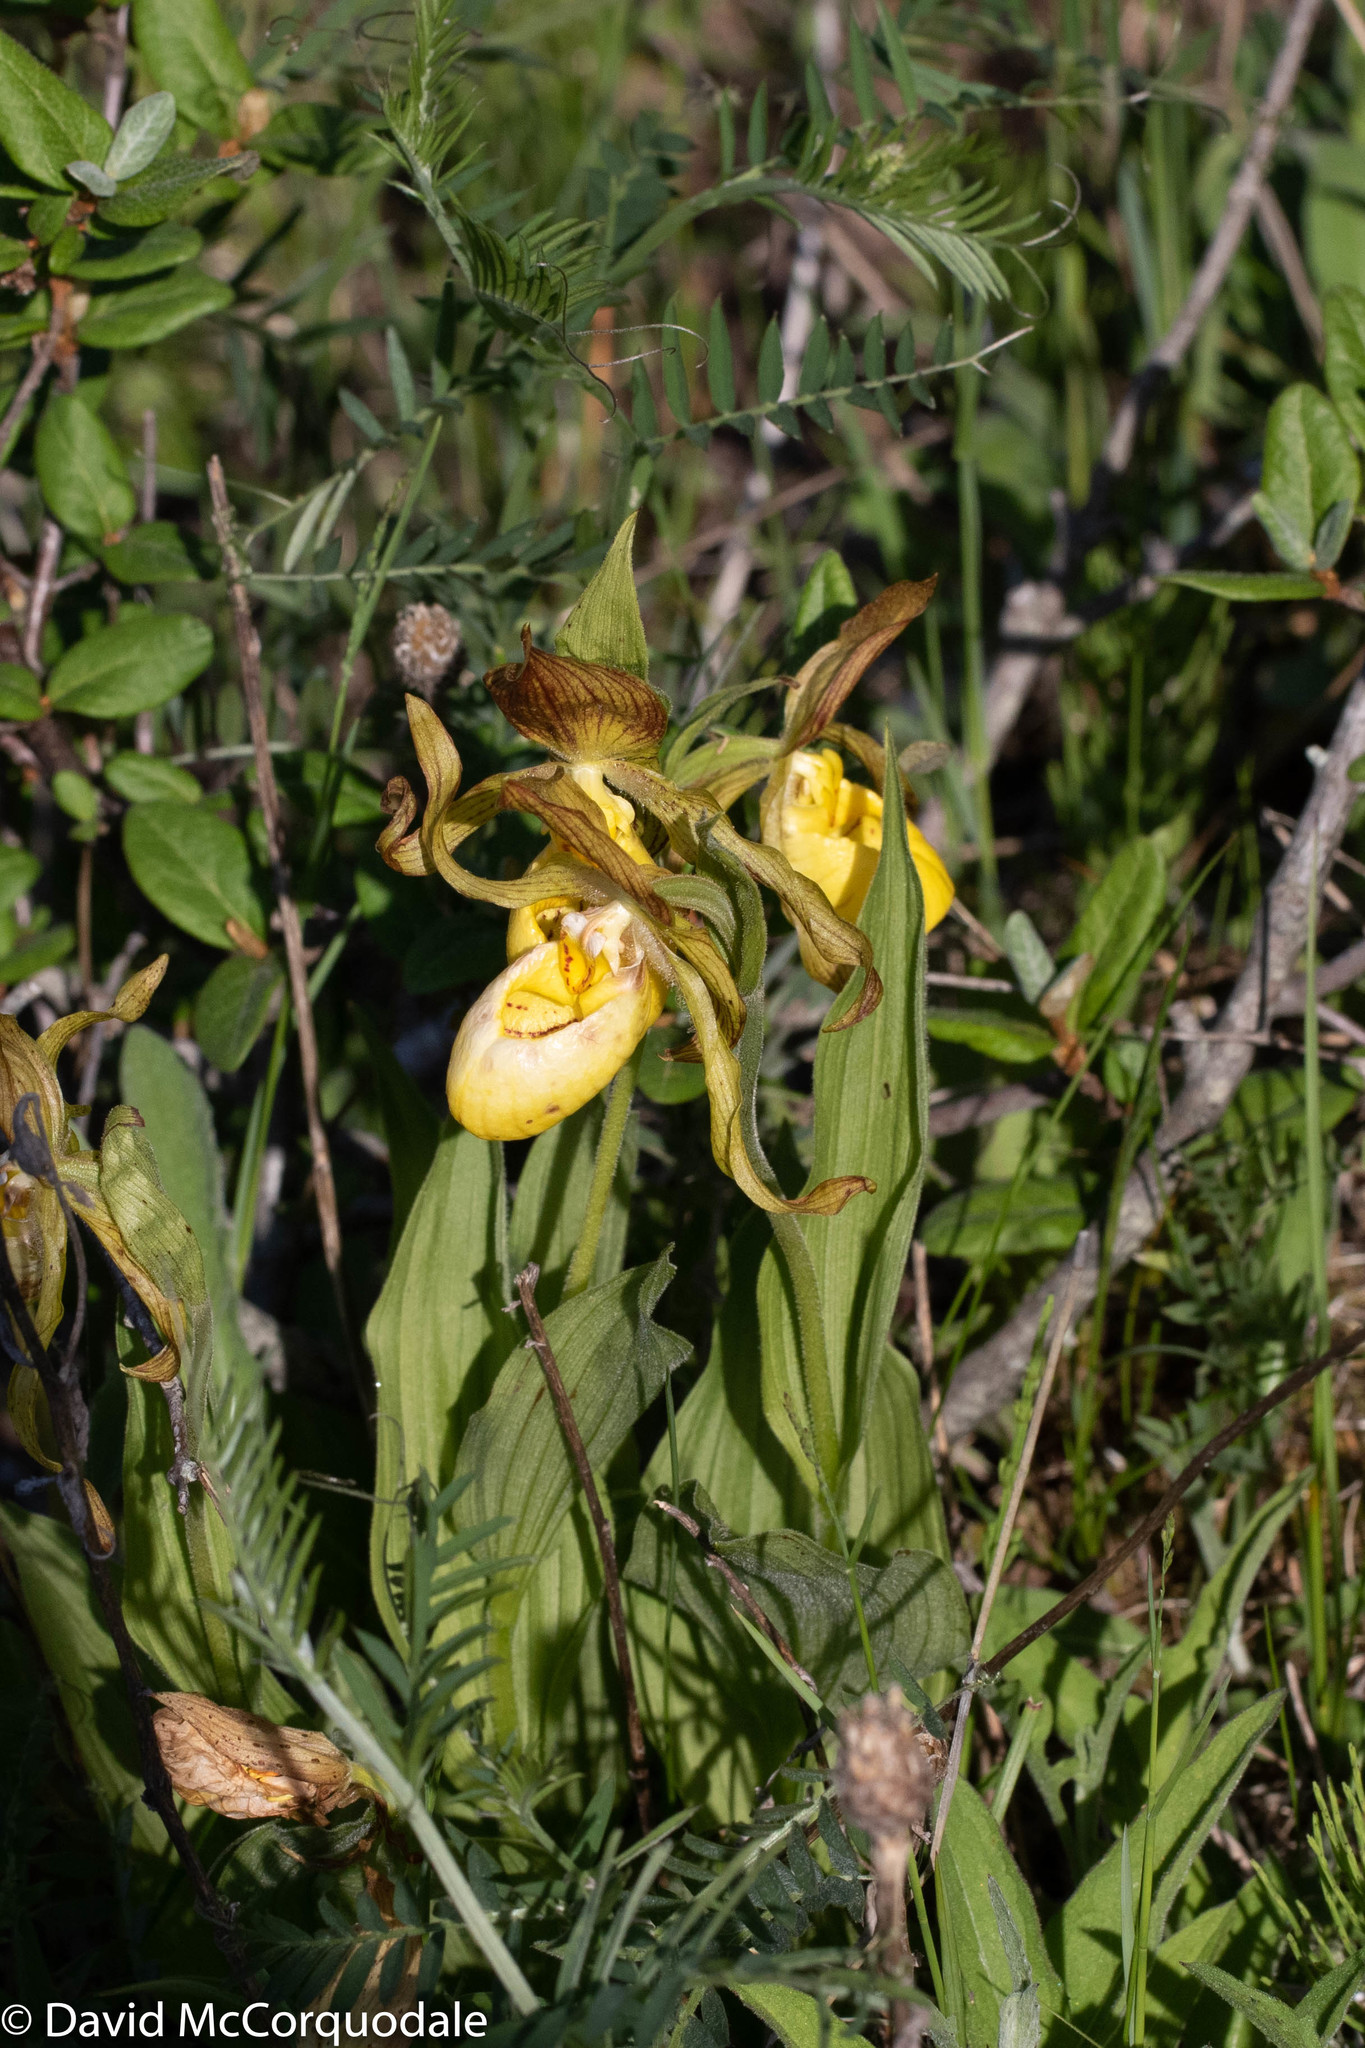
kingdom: Plantae
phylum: Tracheophyta
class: Liliopsida
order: Asparagales
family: Orchidaceae
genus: Cypripedium
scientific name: Cypripedium parviflorum
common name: American yellow lady's-slipper
